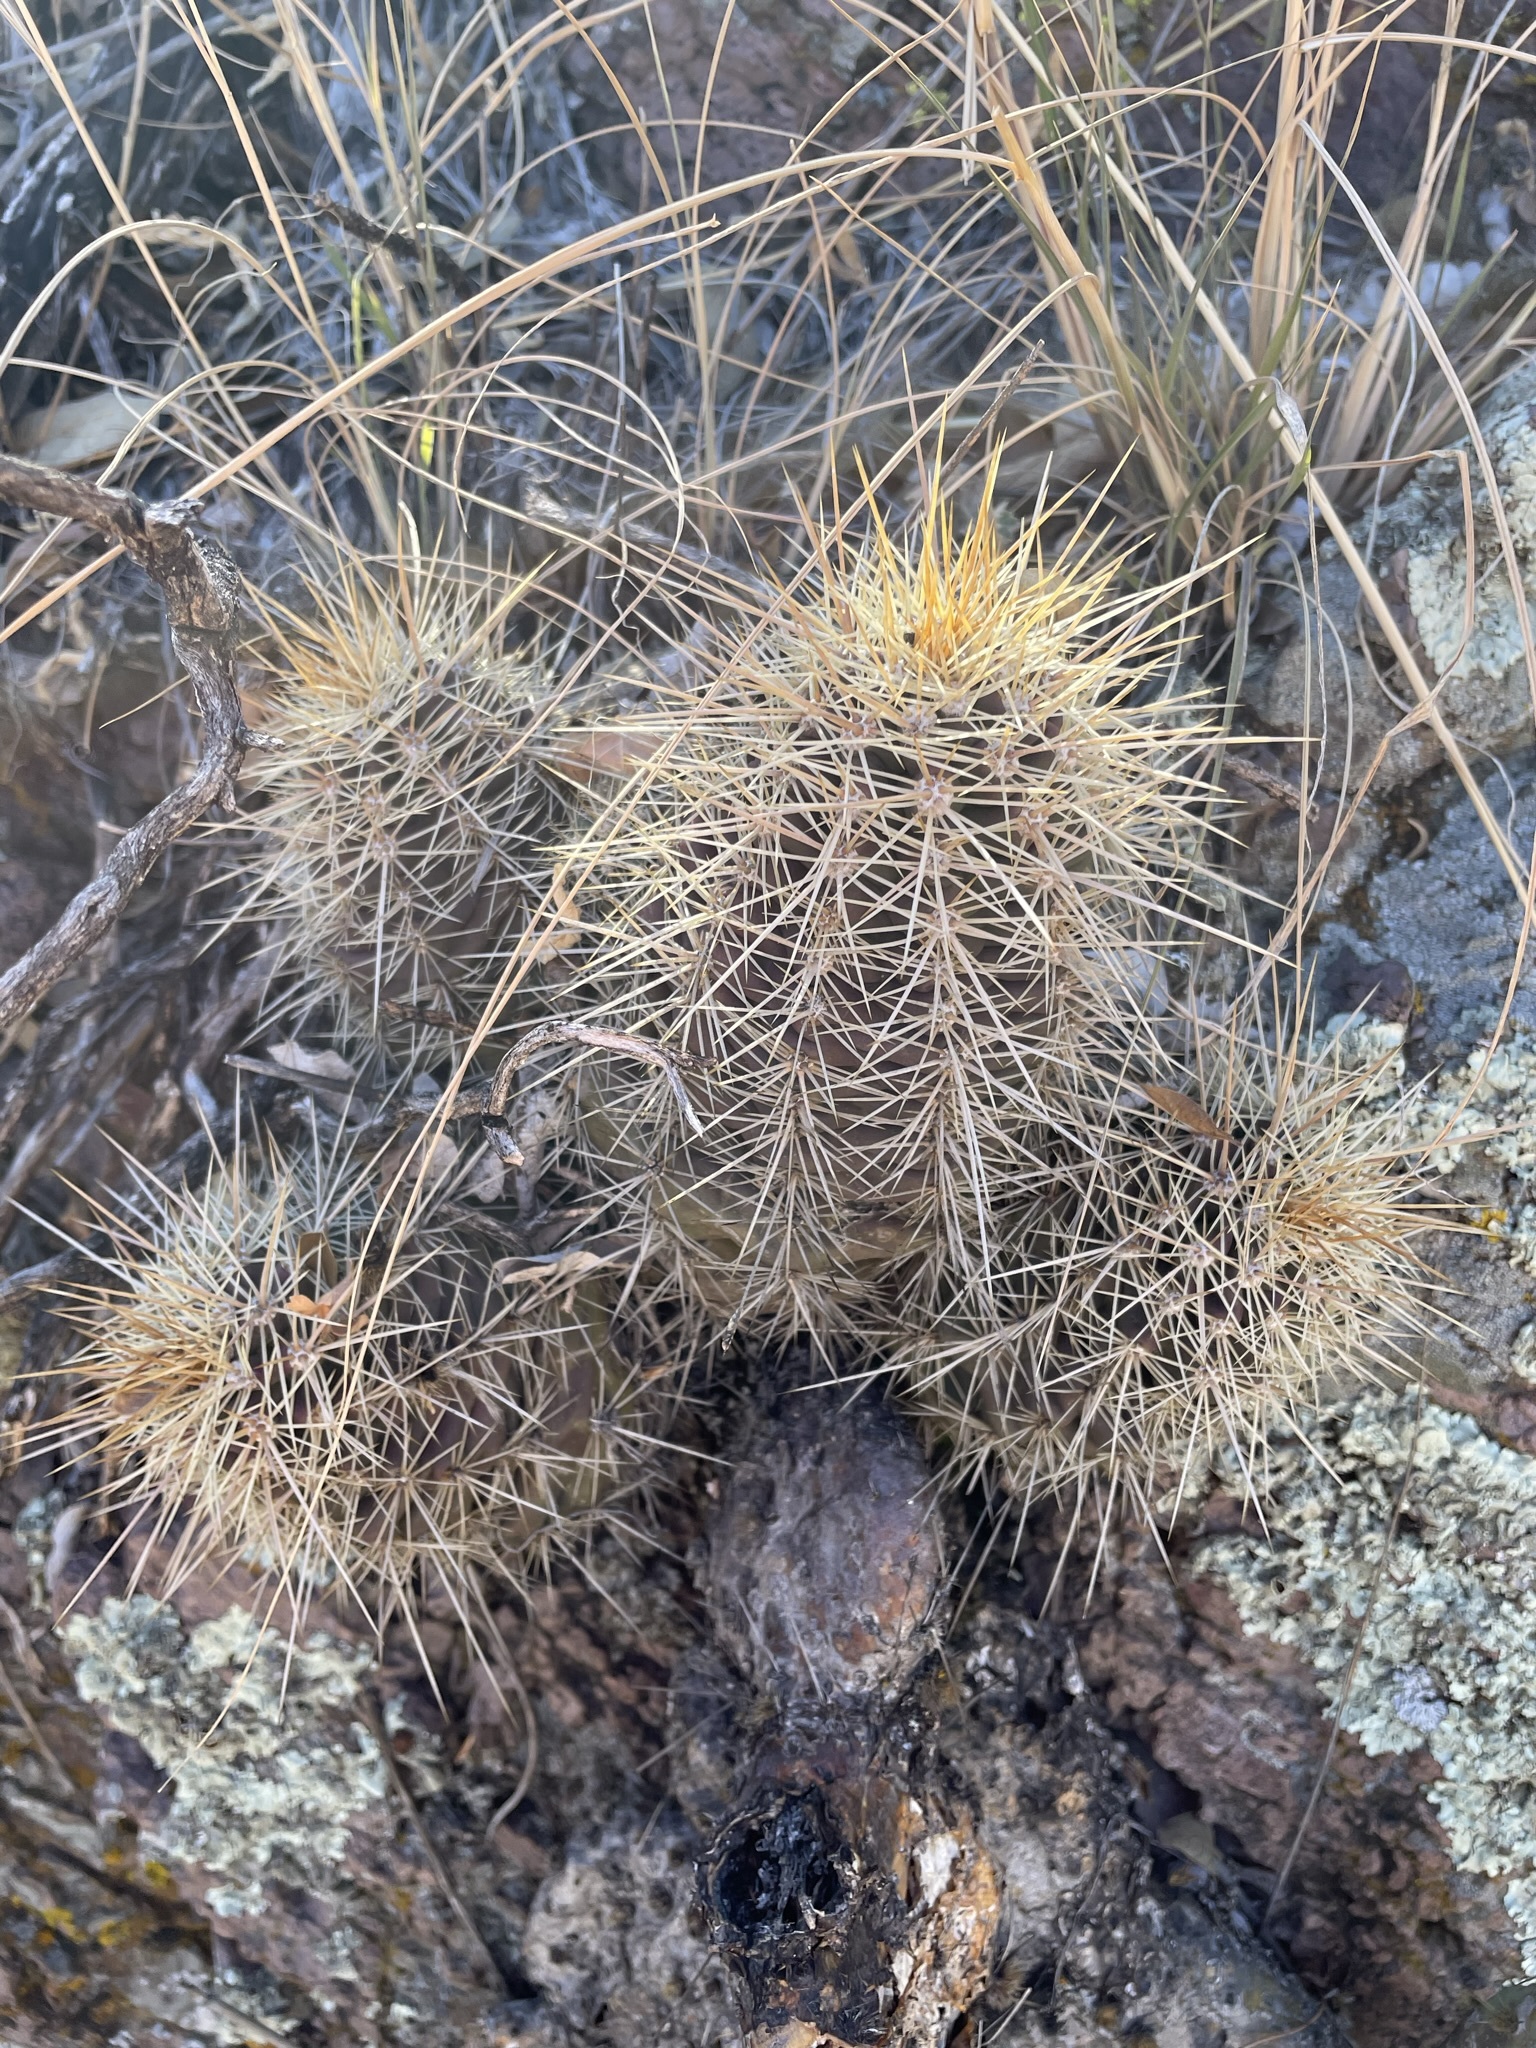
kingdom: Plantae
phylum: Tracheophyta
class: Magnoliopsida
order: Caryophyllales
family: Cactaceae
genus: Echinocereus
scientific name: Echinocereus coccineus
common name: Scarlet hedgehog cactus
